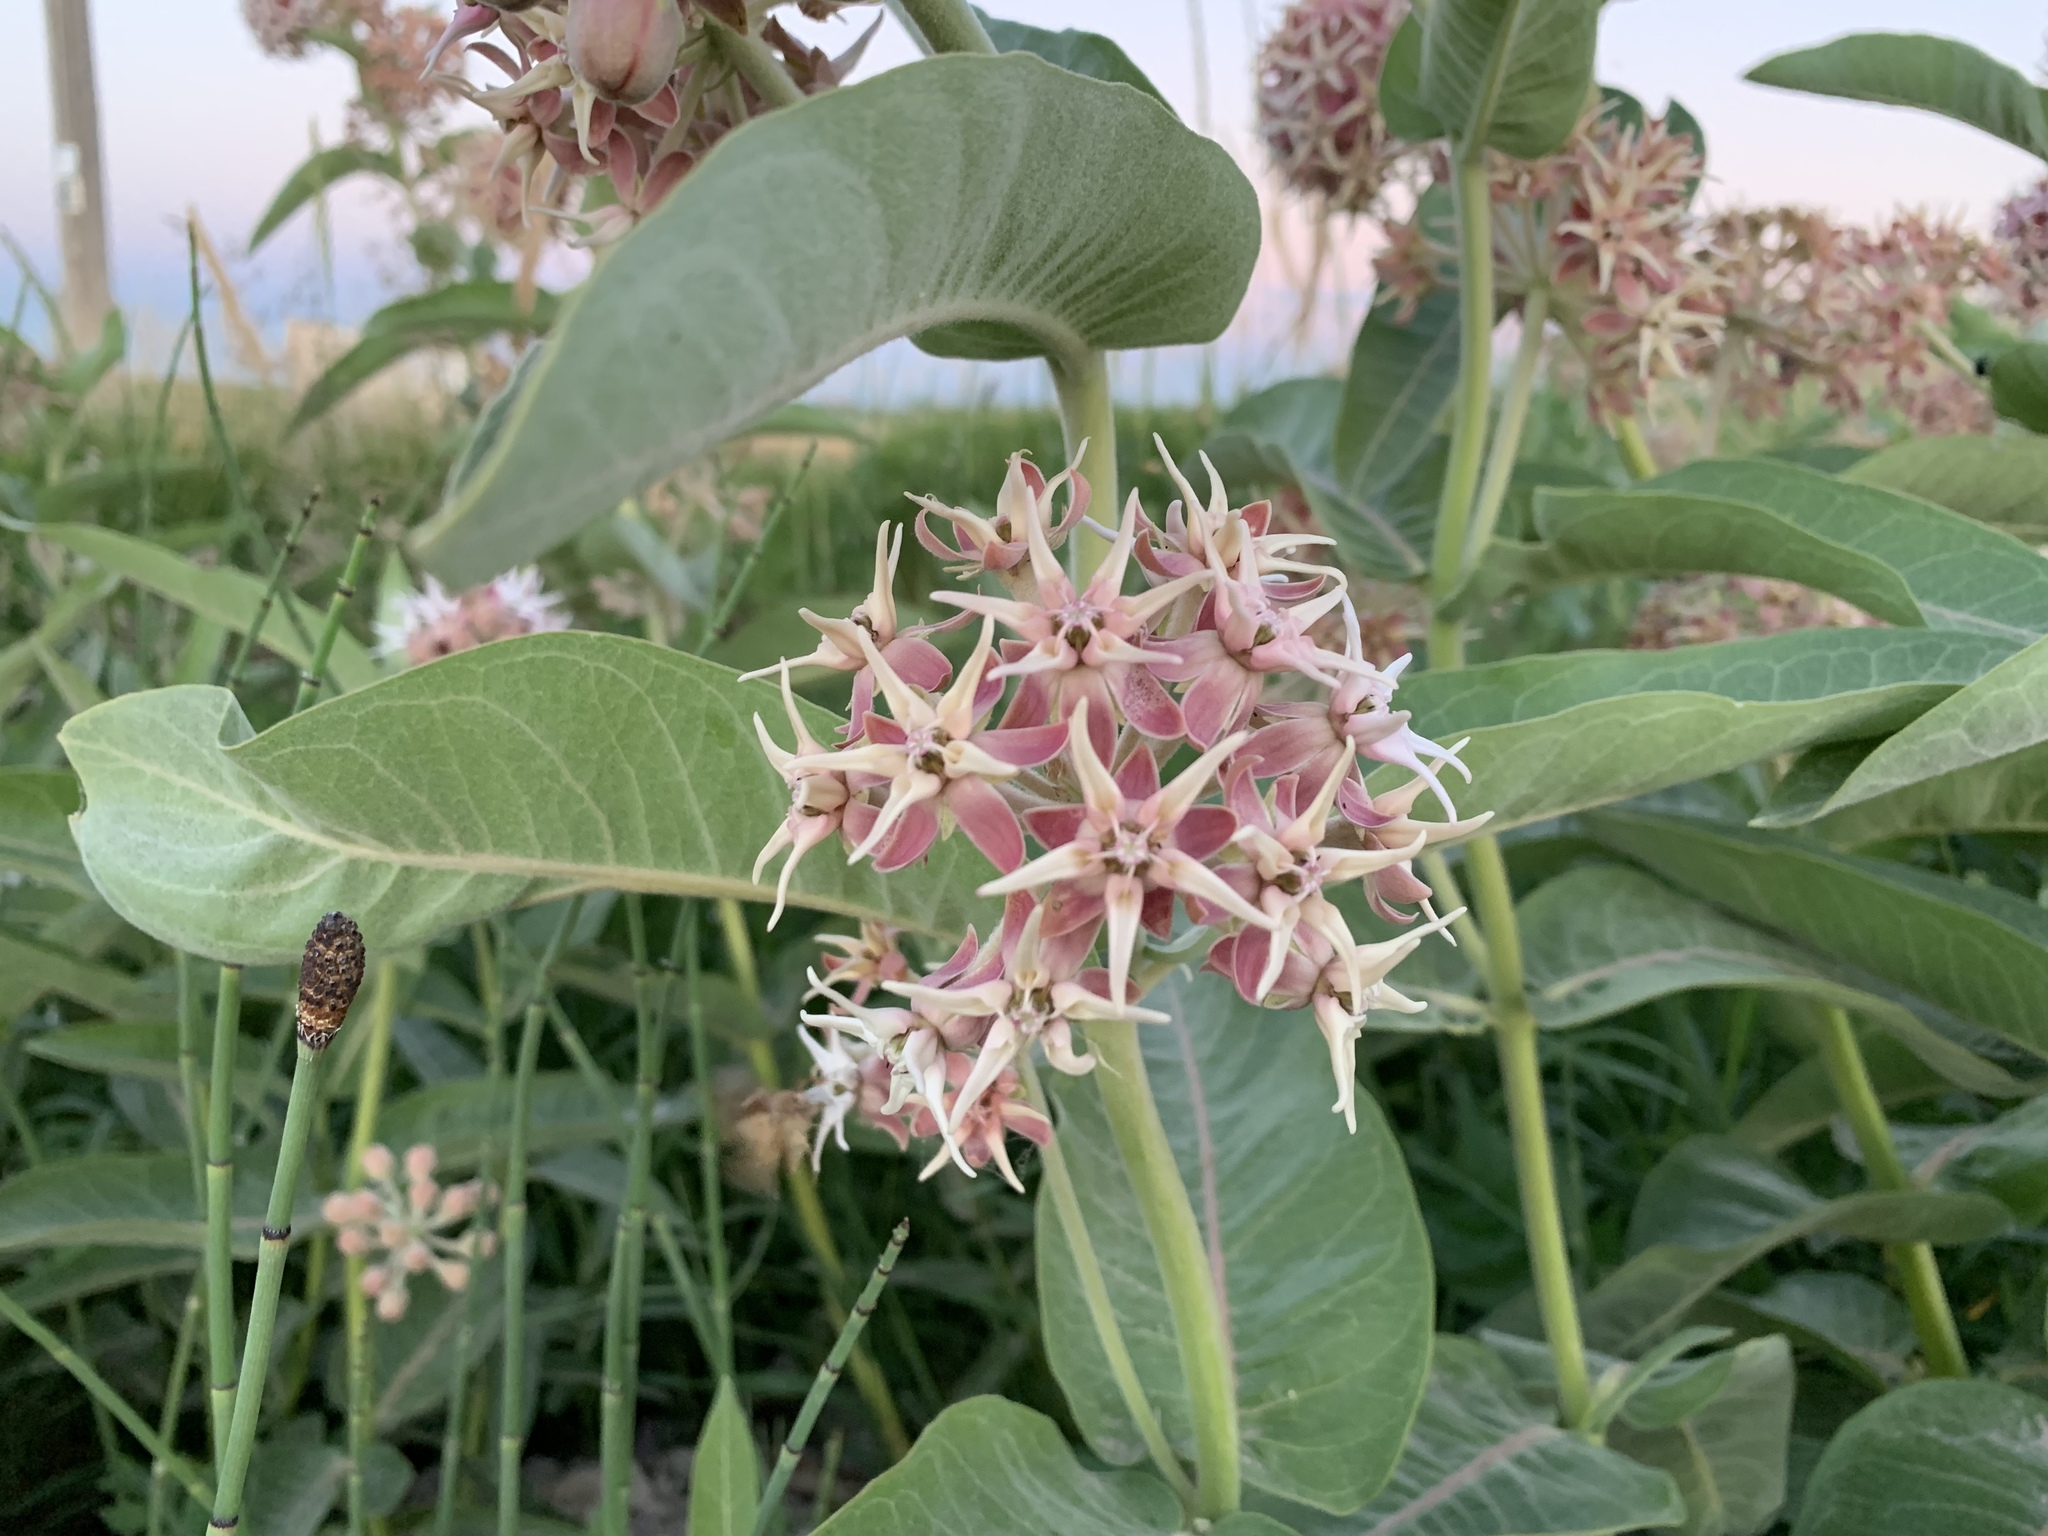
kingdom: Plantae
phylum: Tracheophyta
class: Magnoliopsida
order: Gentianales
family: Apocynaceae
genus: Asclepias
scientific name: Asclepias speciosa
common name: Showy milkweed
